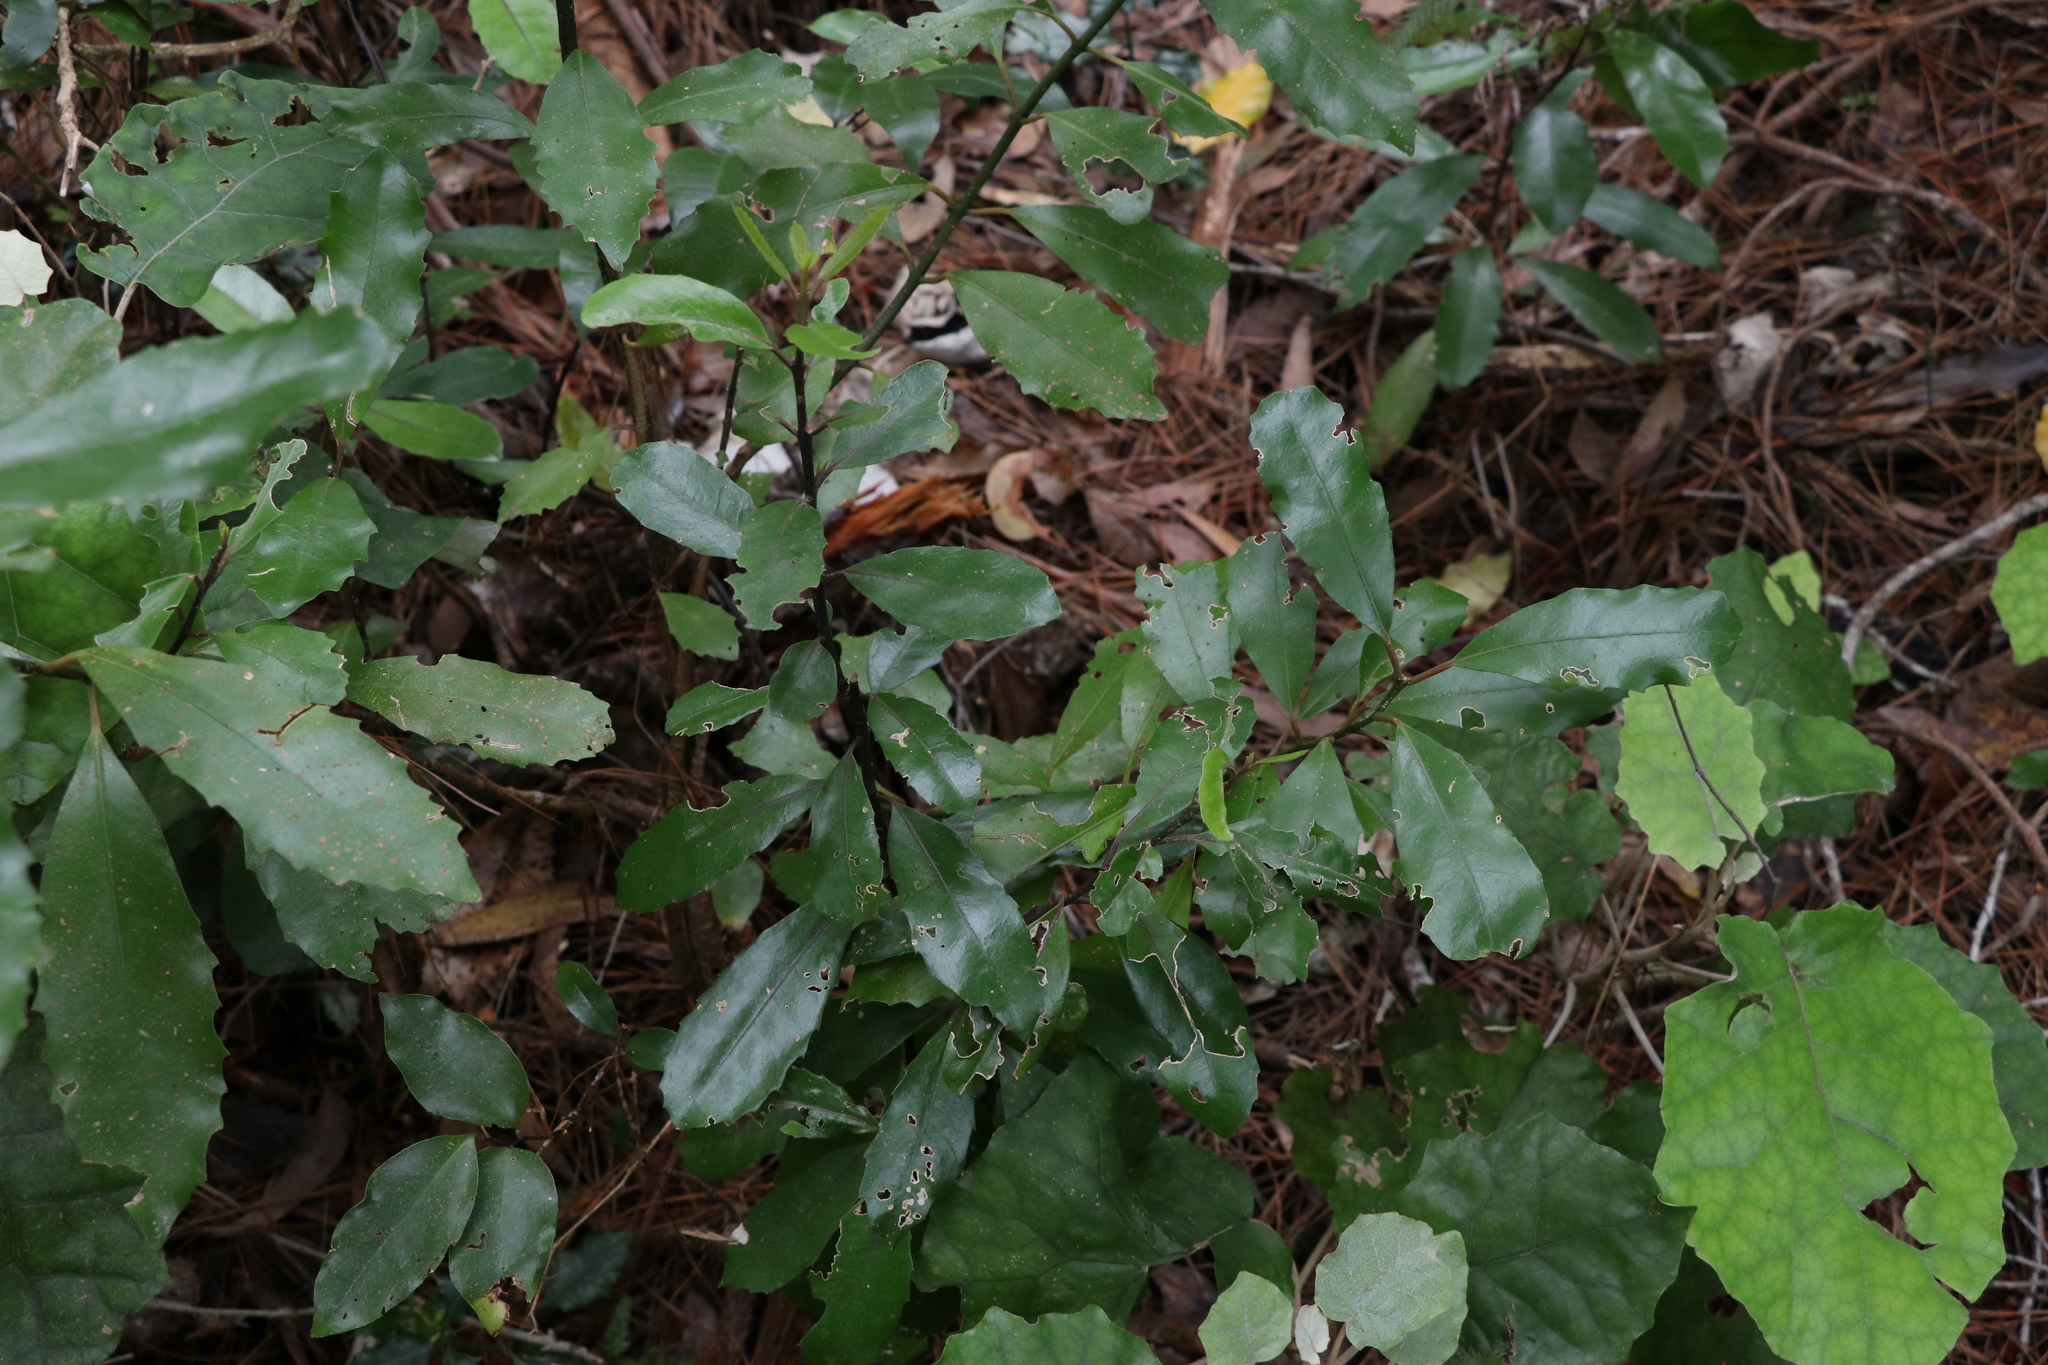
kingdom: Plantae
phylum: Tracheophyta
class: Magnoliopsida
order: Laurales
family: Monimiaceae
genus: Hedycarya
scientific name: Hedycarya arborea
